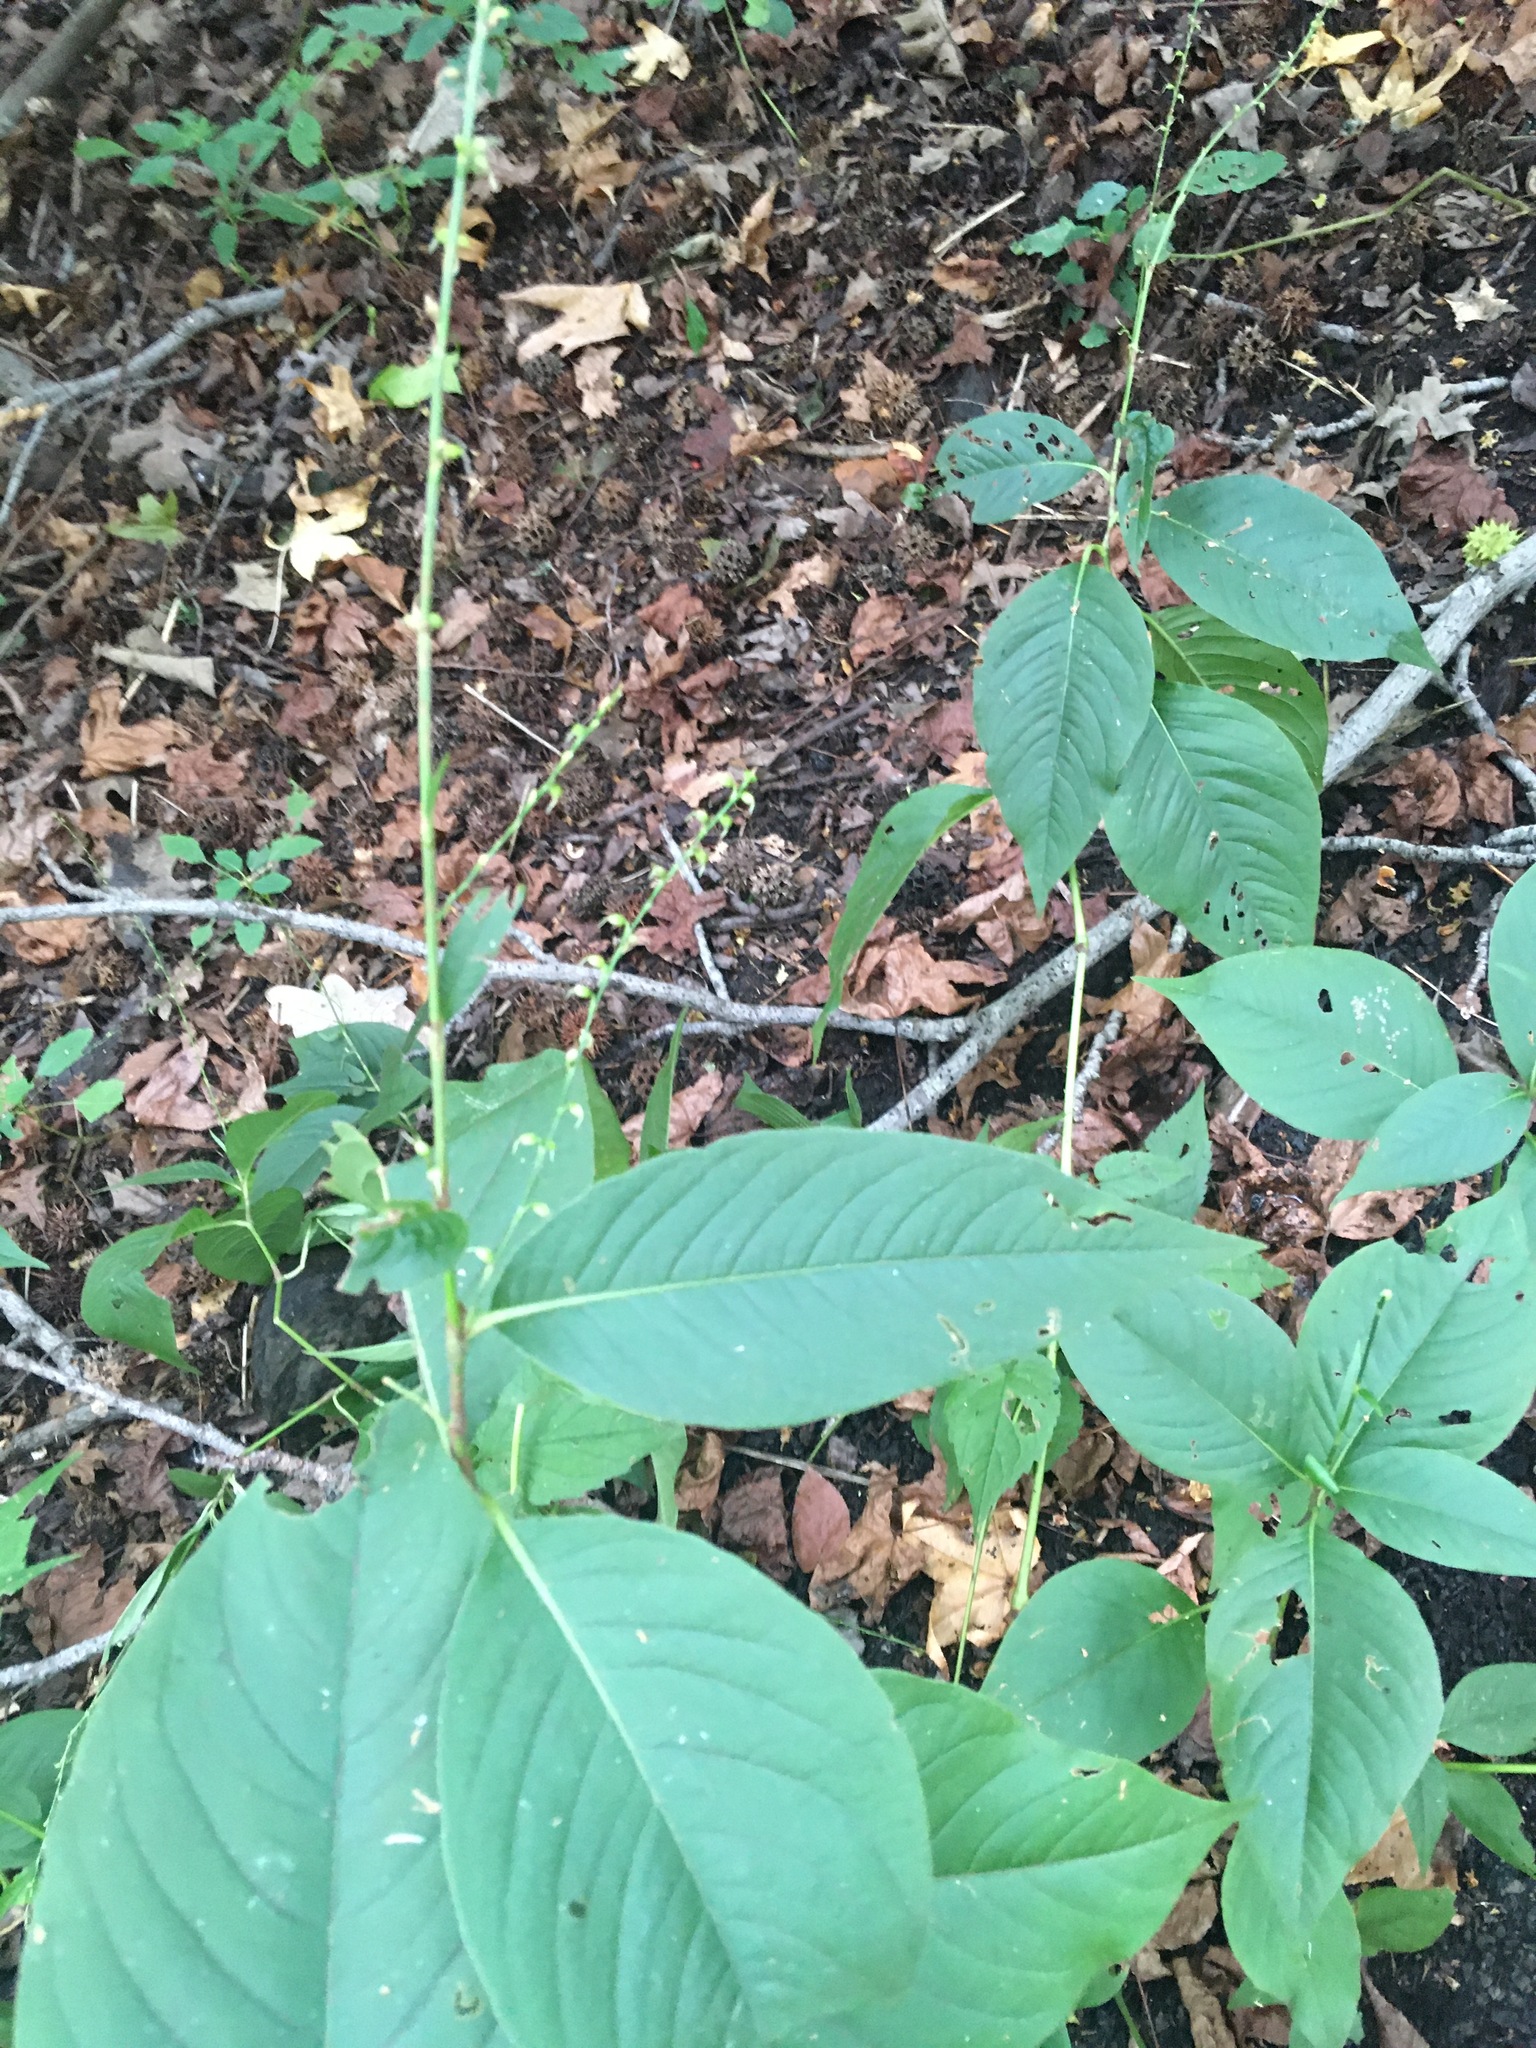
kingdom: Plantae
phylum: Tracheophyta
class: Magnoliopsida
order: Caryophyllales
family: Polygonaceae
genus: Persicaria
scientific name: Persicaria virginiana
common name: Jumpseed
